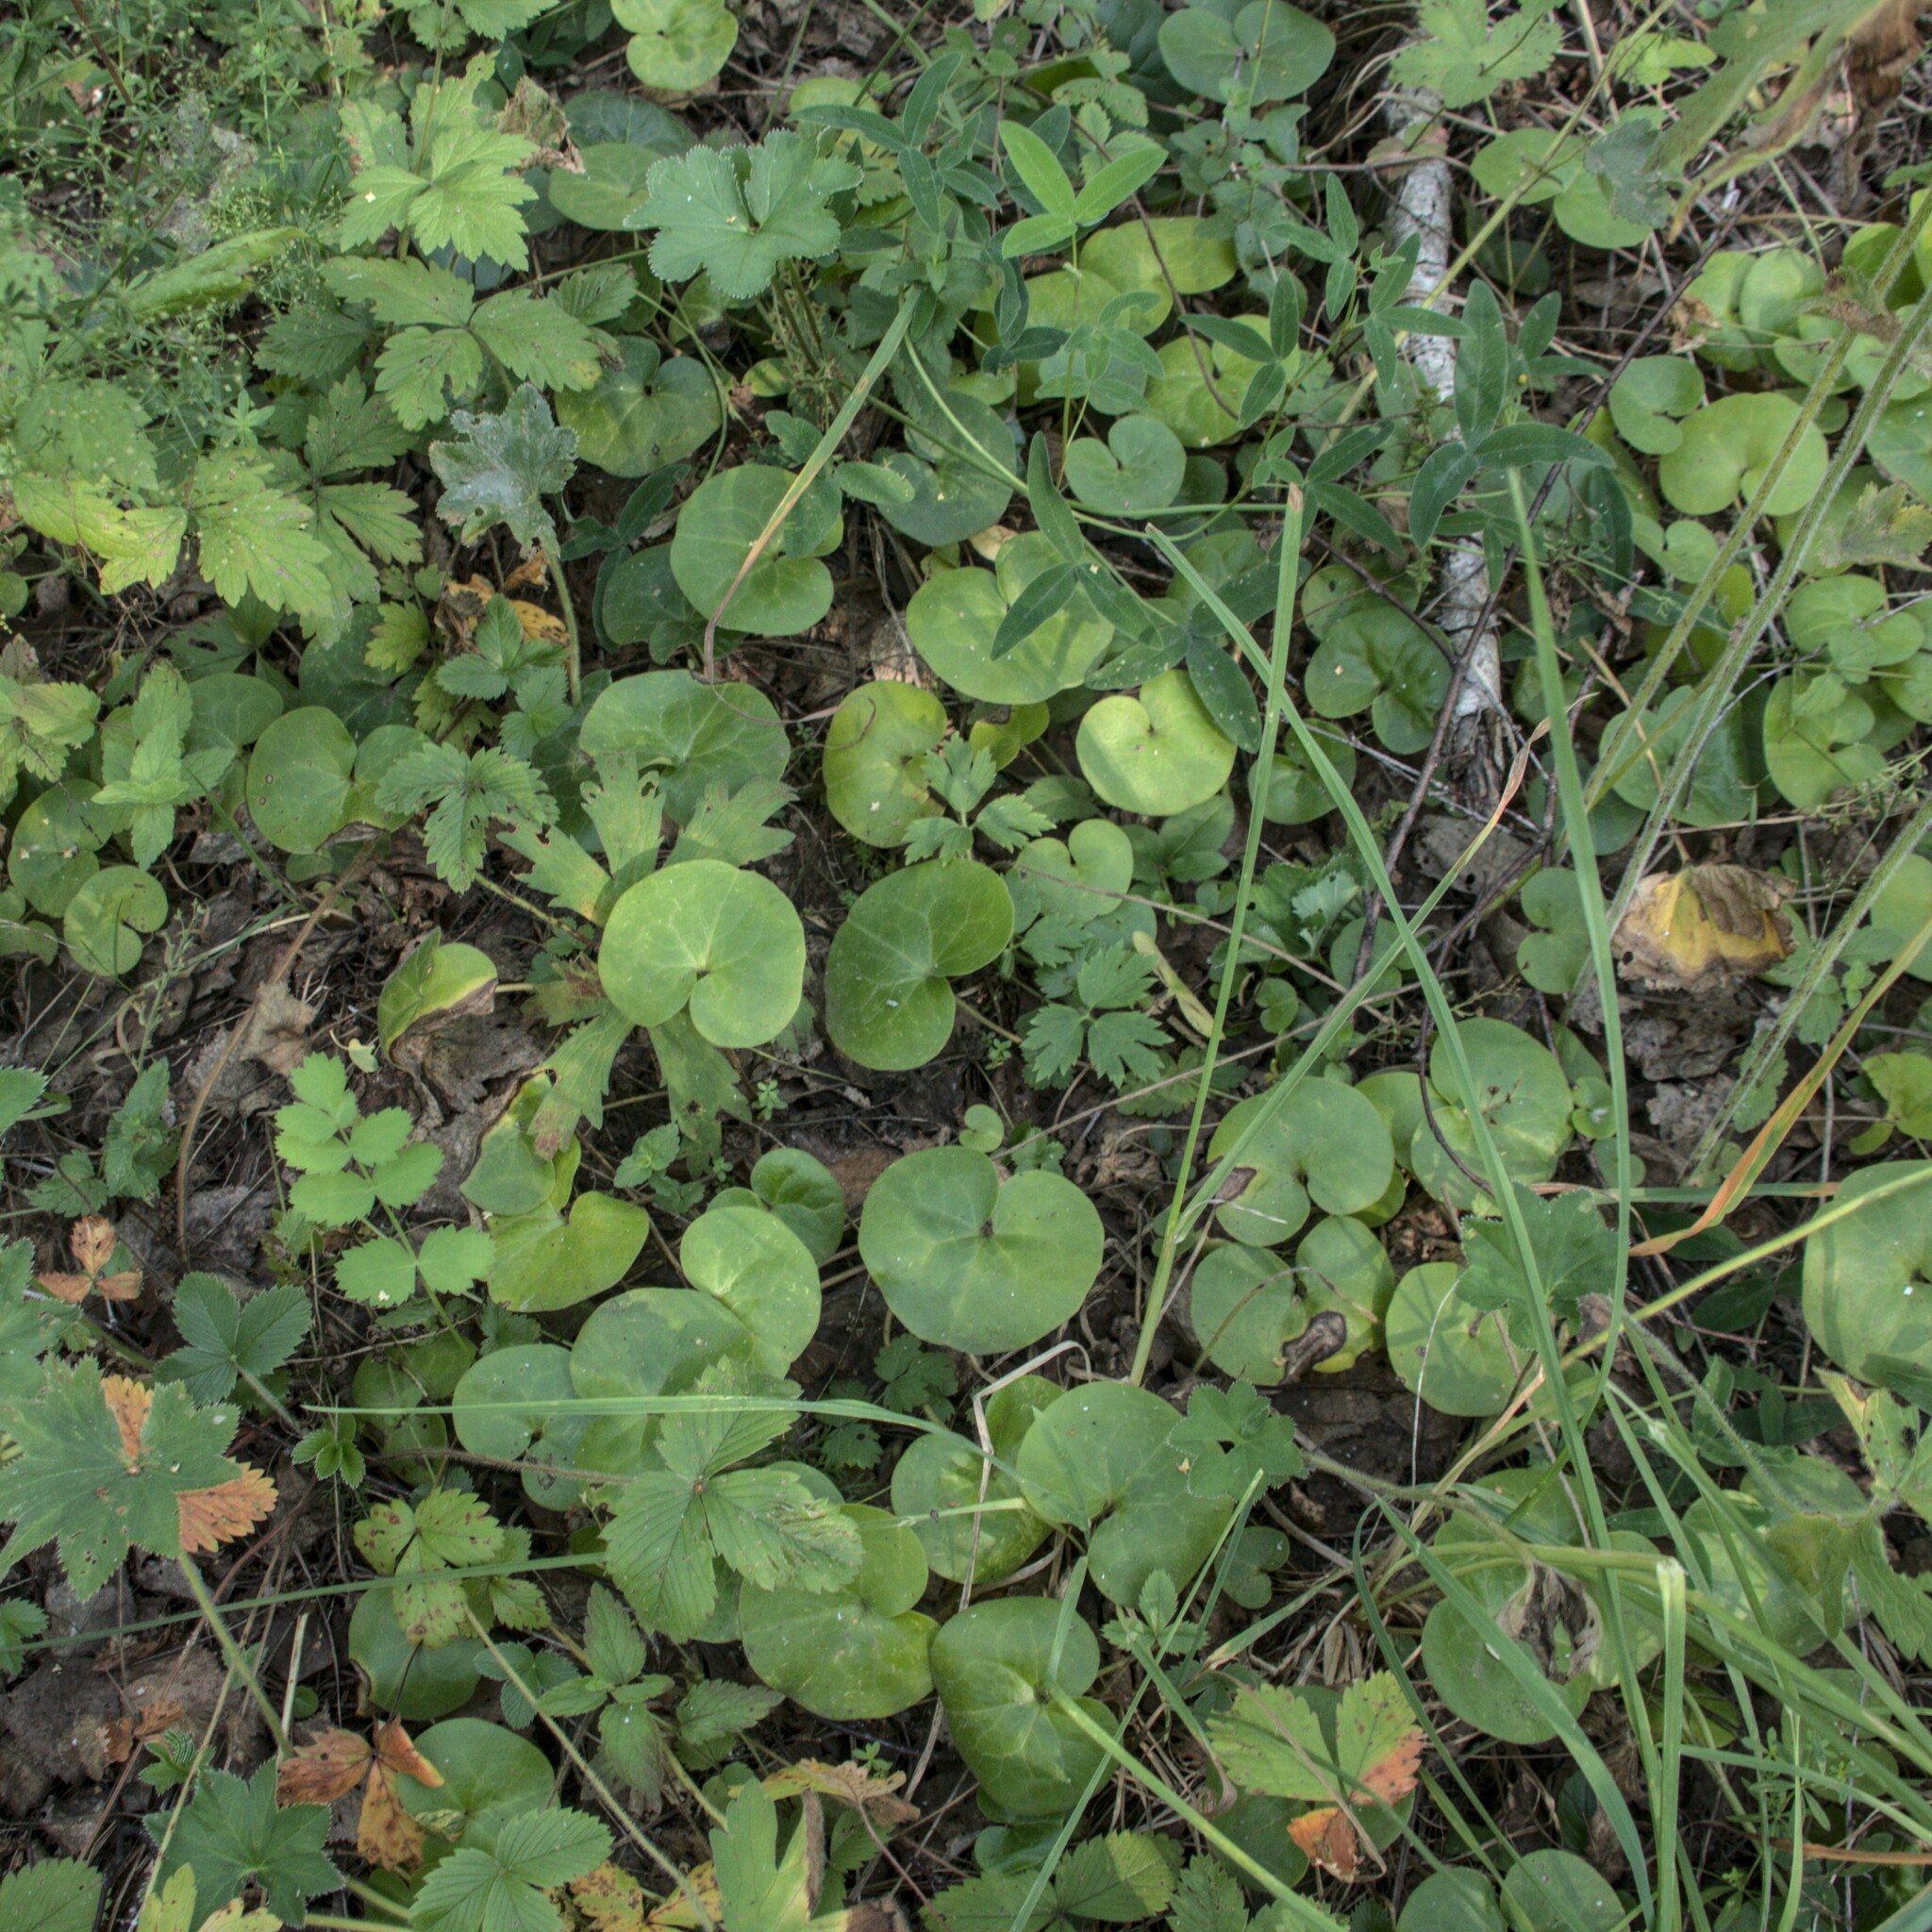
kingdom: Plantae
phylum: Tracheophyta
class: Magnoliopsida
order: Piperales
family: Aristolochiaceae
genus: Asarum
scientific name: Asarum europaeum
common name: Asarabacca
